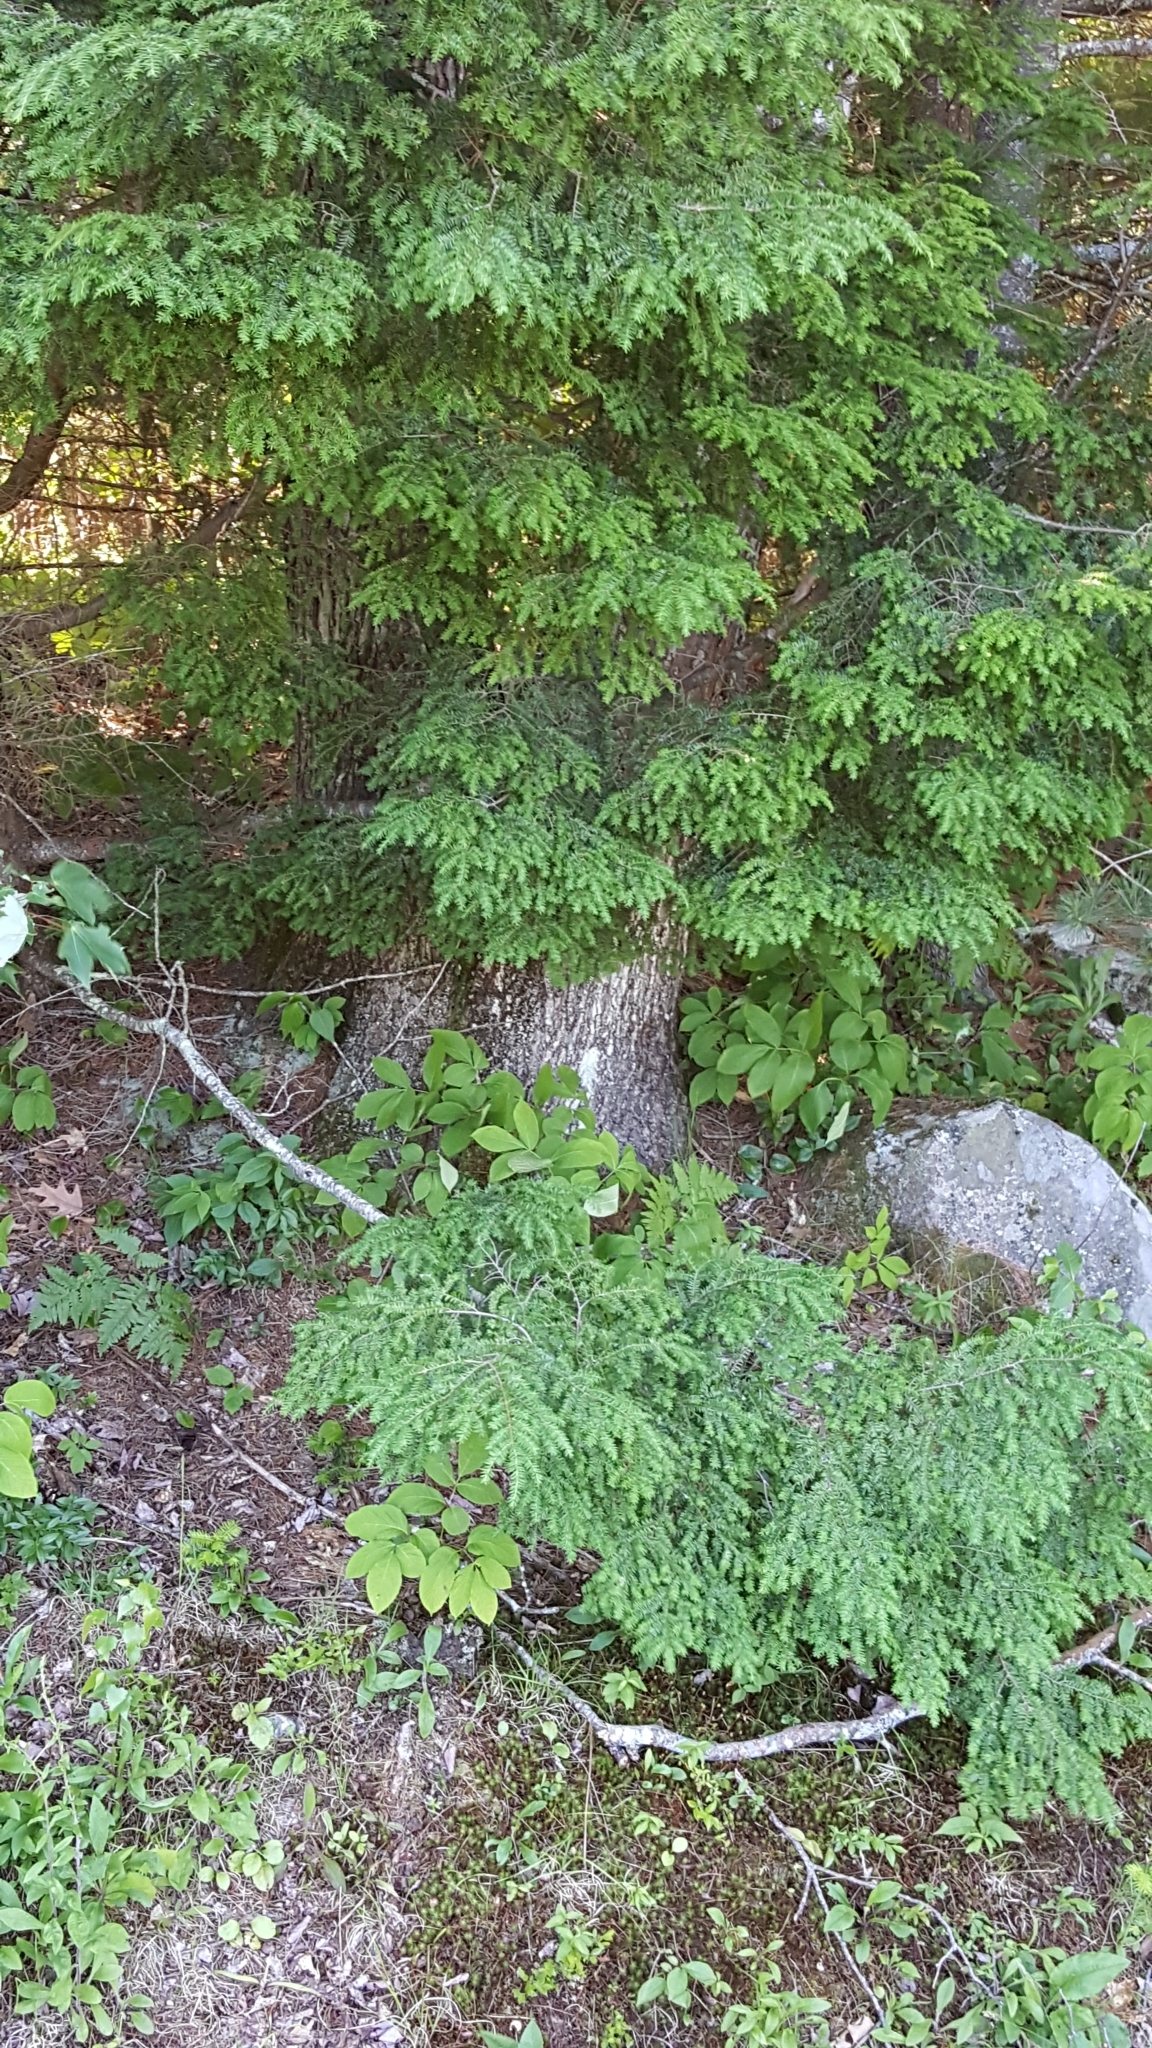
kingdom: Plantae
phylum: Tracheophyta
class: Pinopsida
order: Pinales
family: Pinaceae
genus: Tsuga
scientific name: Tsuga canadensis
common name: Eastern hemlock
